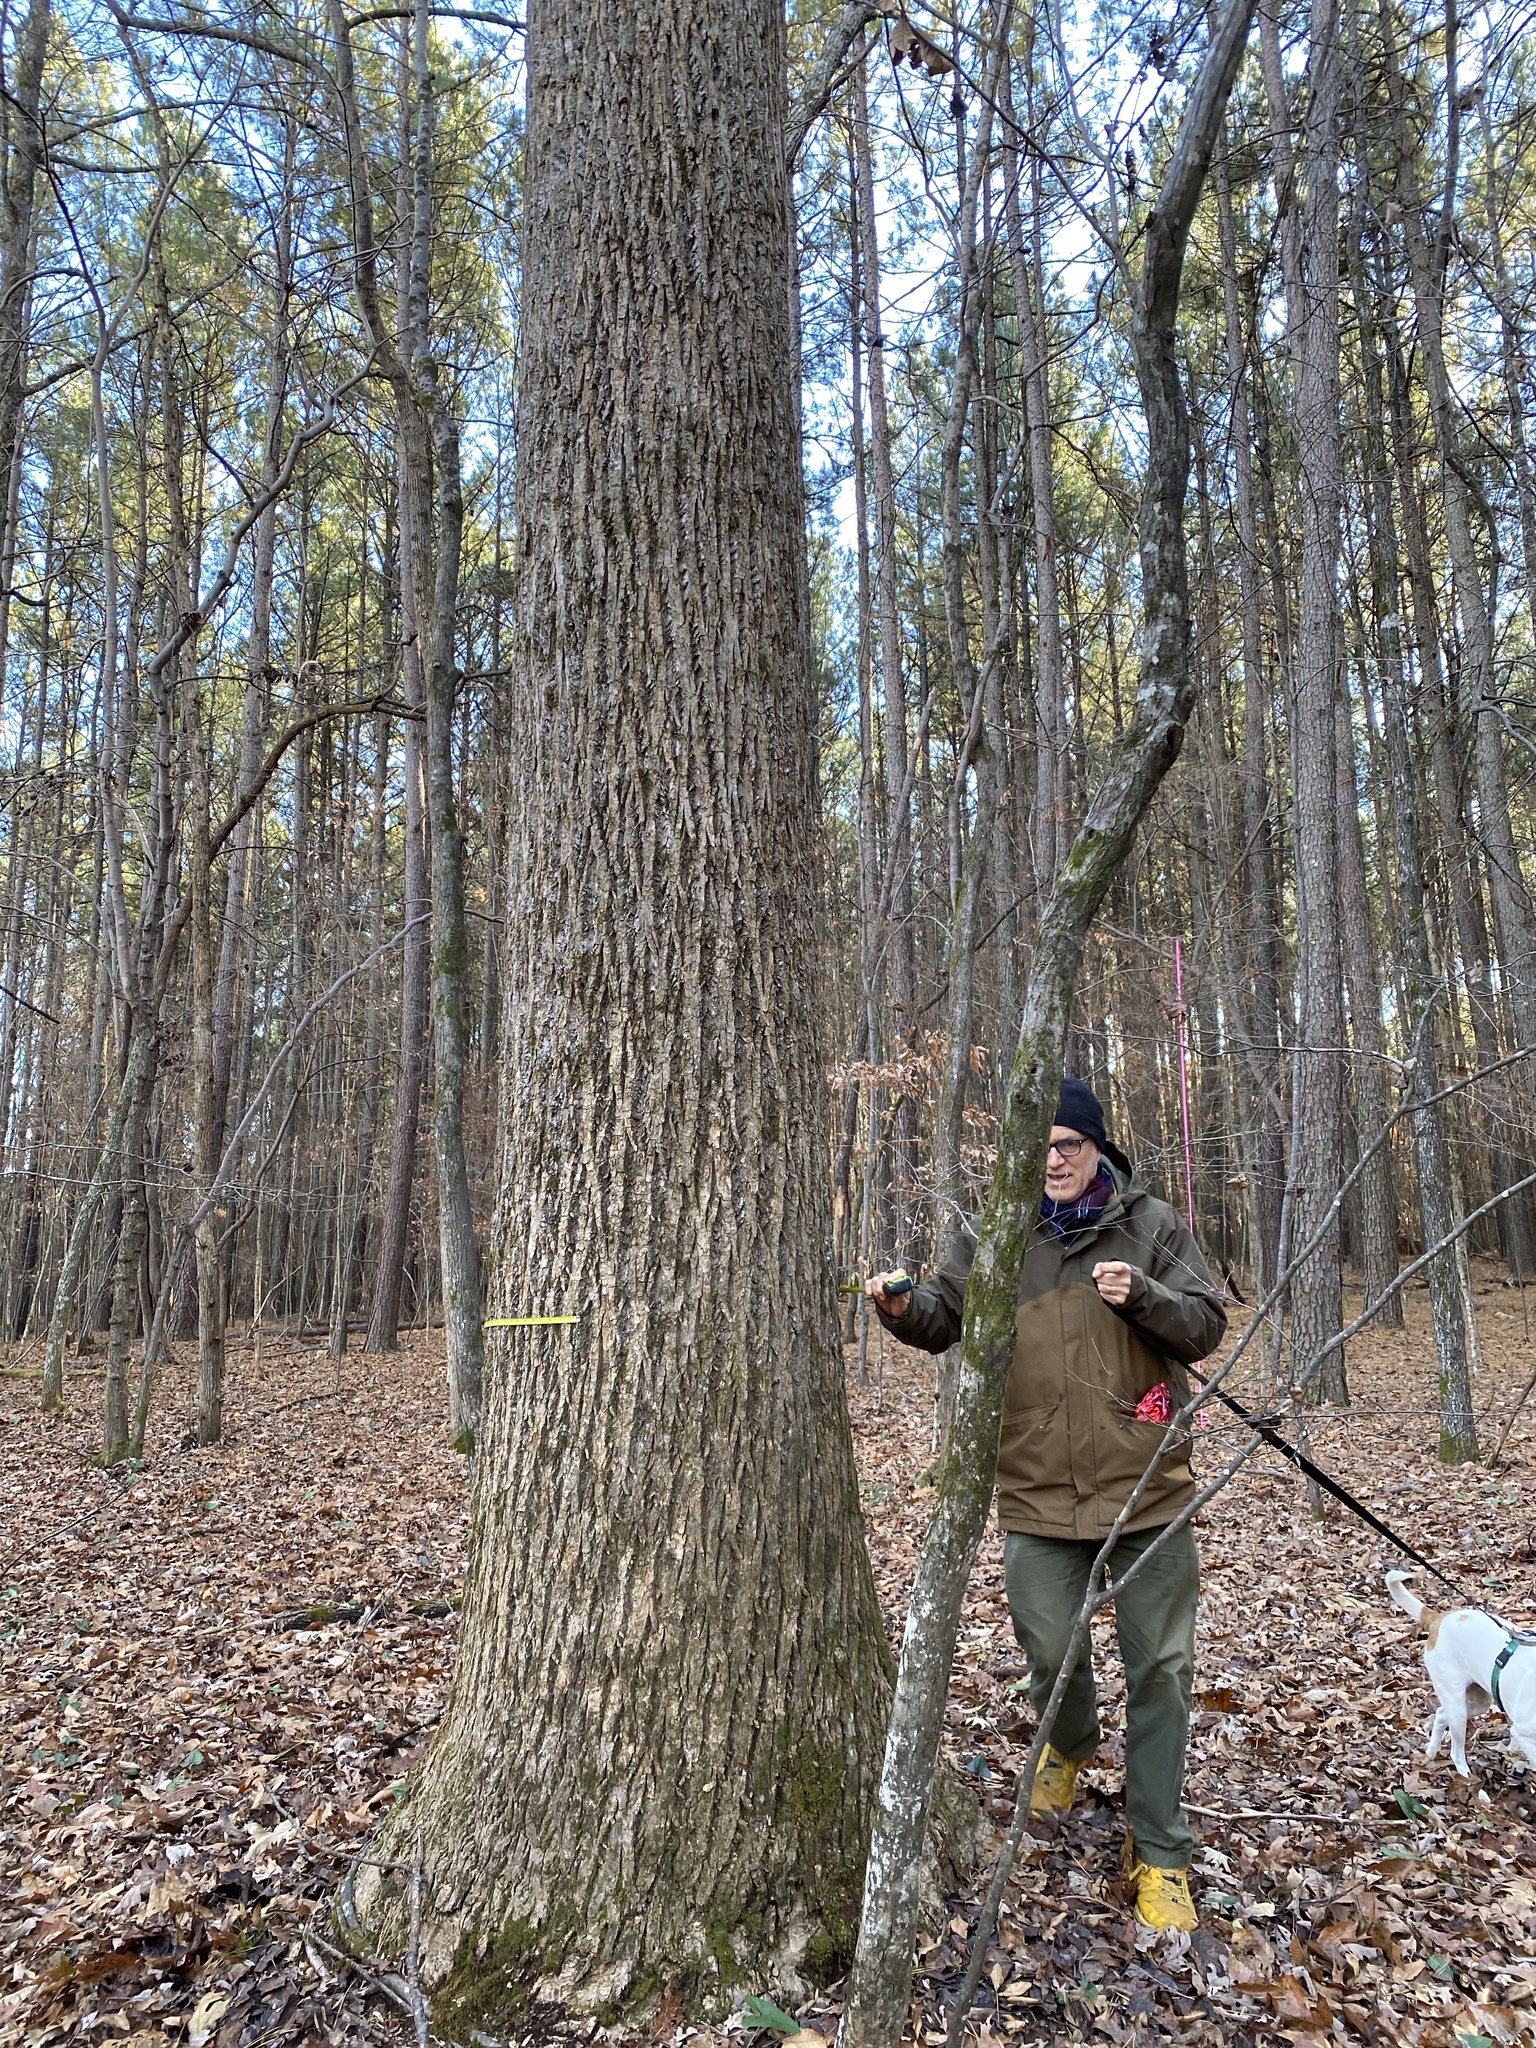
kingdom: Plantae
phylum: Tracheophyta
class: Magnoliopsida
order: Magnoliales
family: Magnoliaceae
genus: Liriodendron
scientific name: Liriodendron tulipifera
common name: Tulip tree
